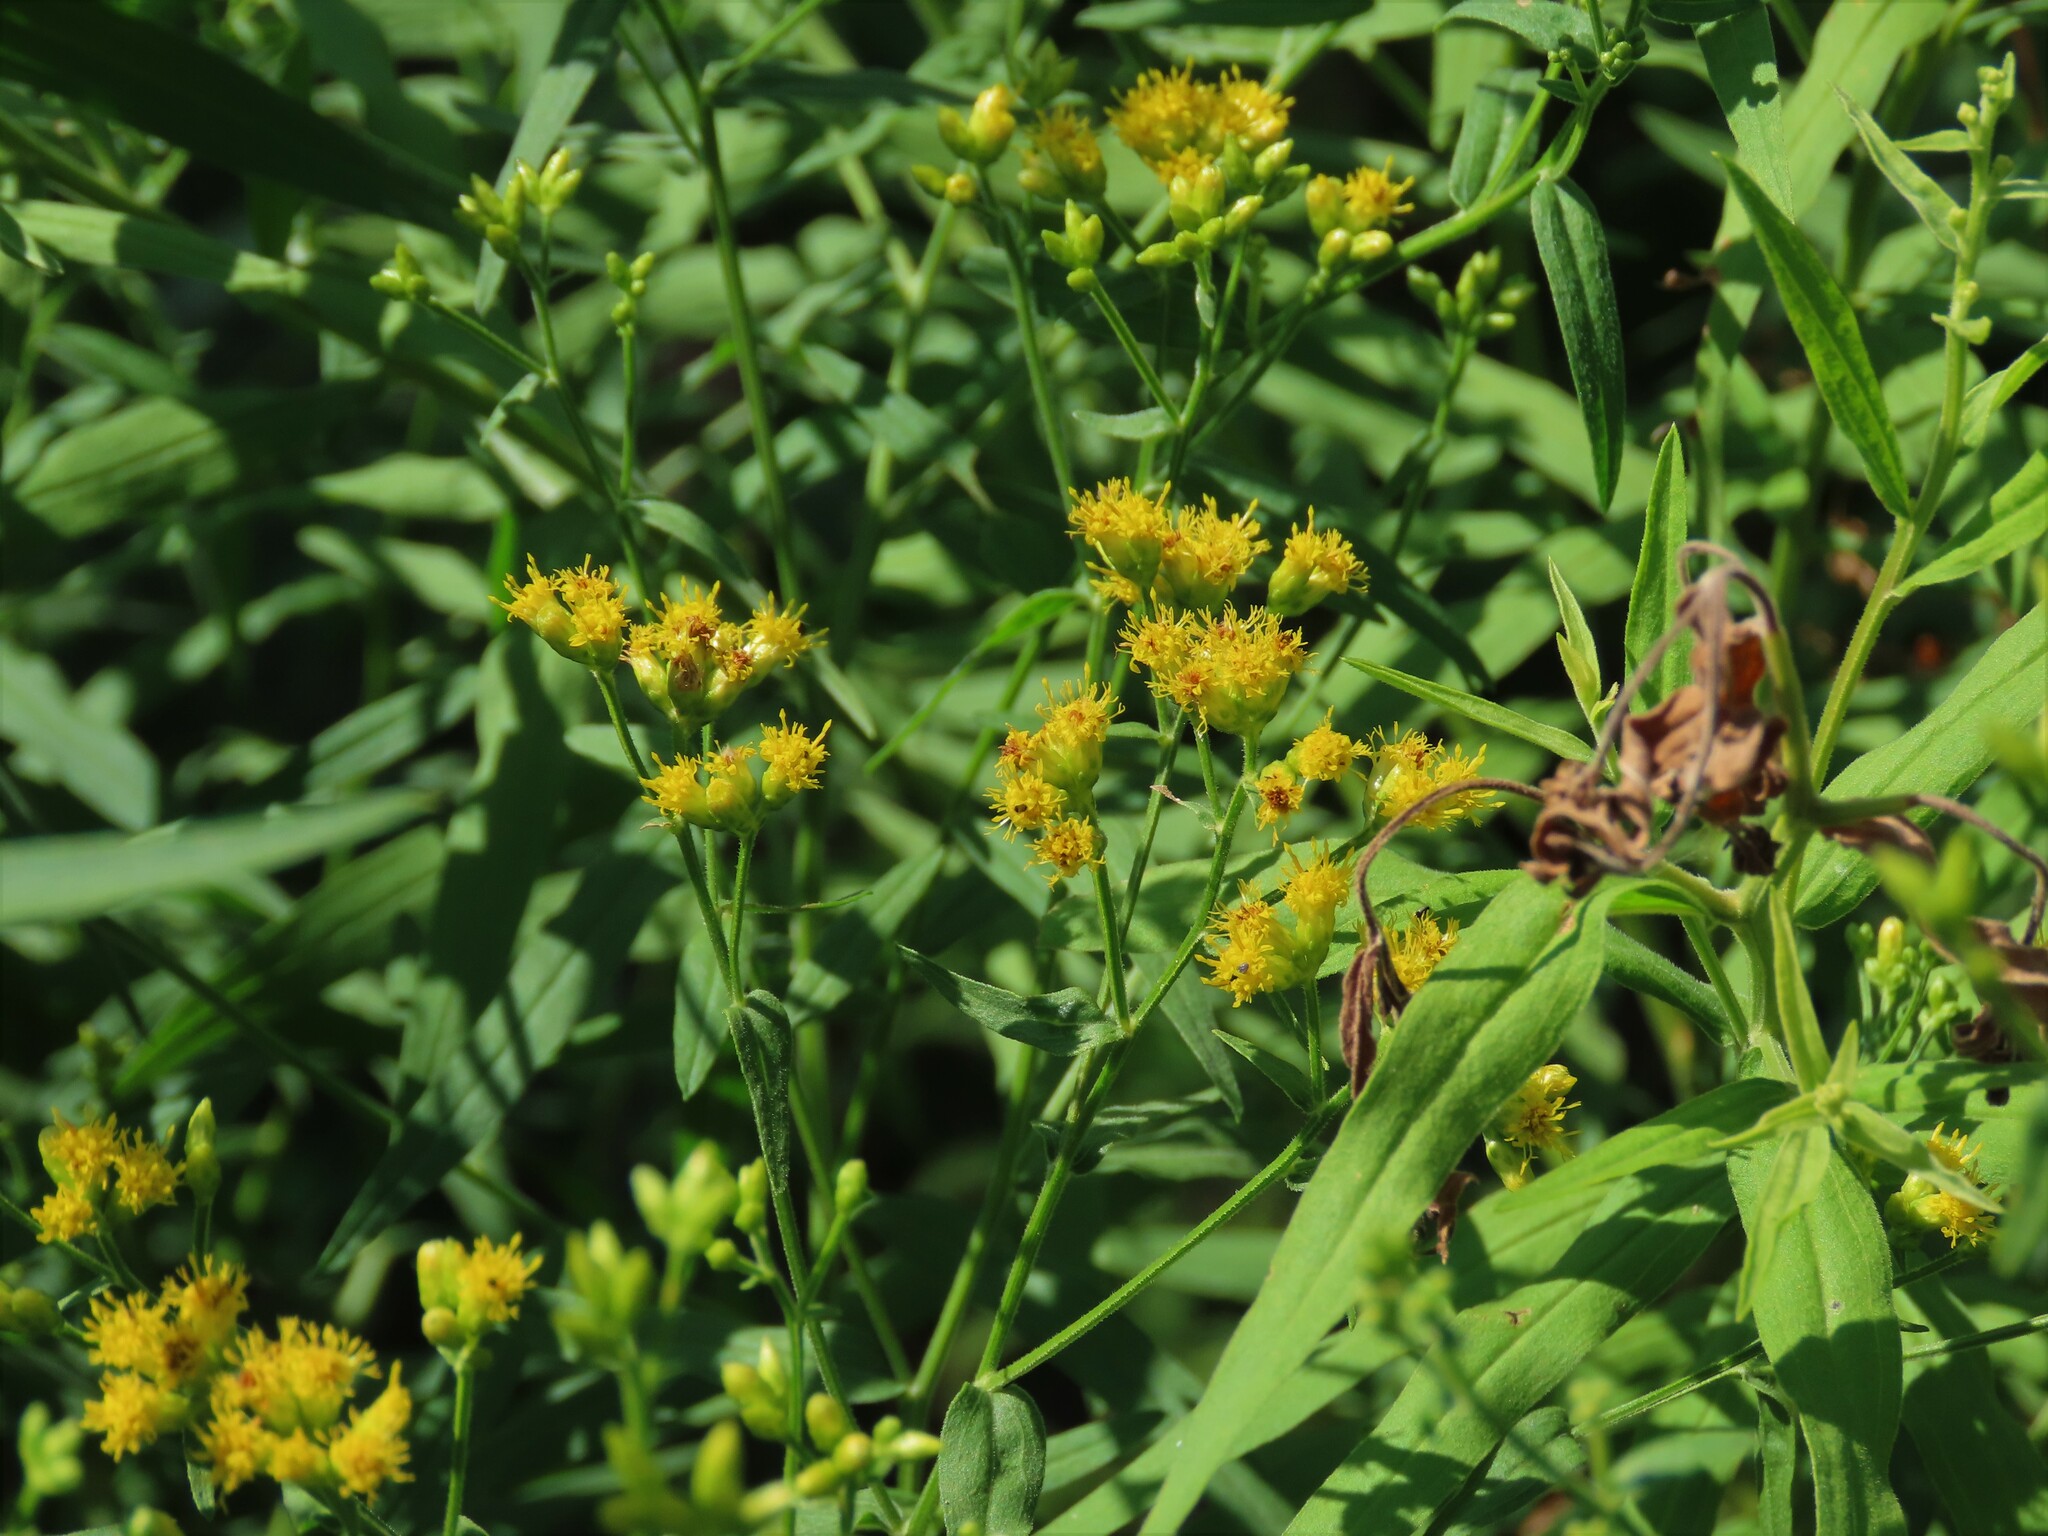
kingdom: Plantae
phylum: Tracheophyta
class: Magnoliopsida
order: Asterales
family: Asteraceae
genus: Euthamia
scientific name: Euthamia graminifolia
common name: Common goldentop
